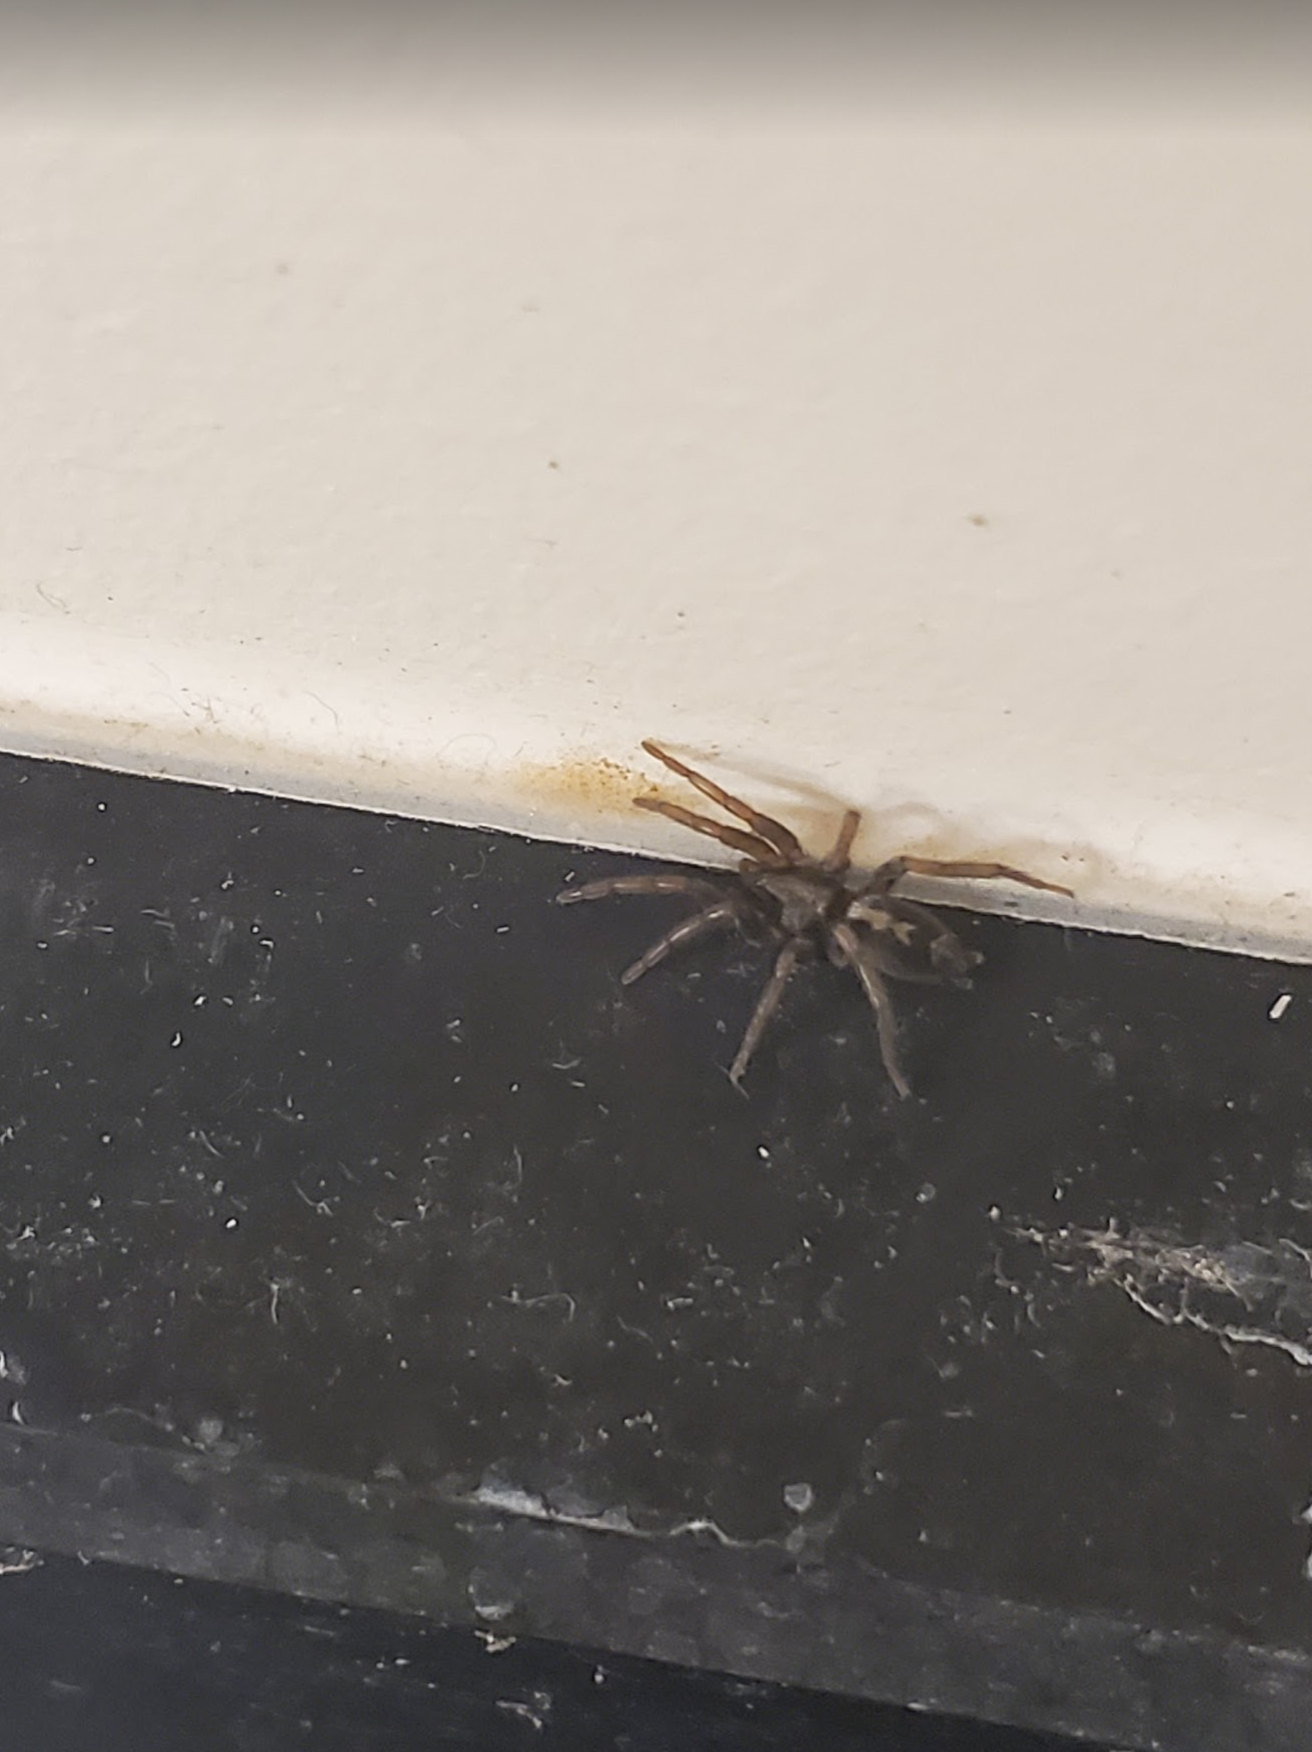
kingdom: Animalia
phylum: Arthropoda
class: Arachnida
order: Araneae
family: Gnaphosidae
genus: Herpyllus
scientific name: Herpyllus ecclesiasticus
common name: Eastern parson spider
